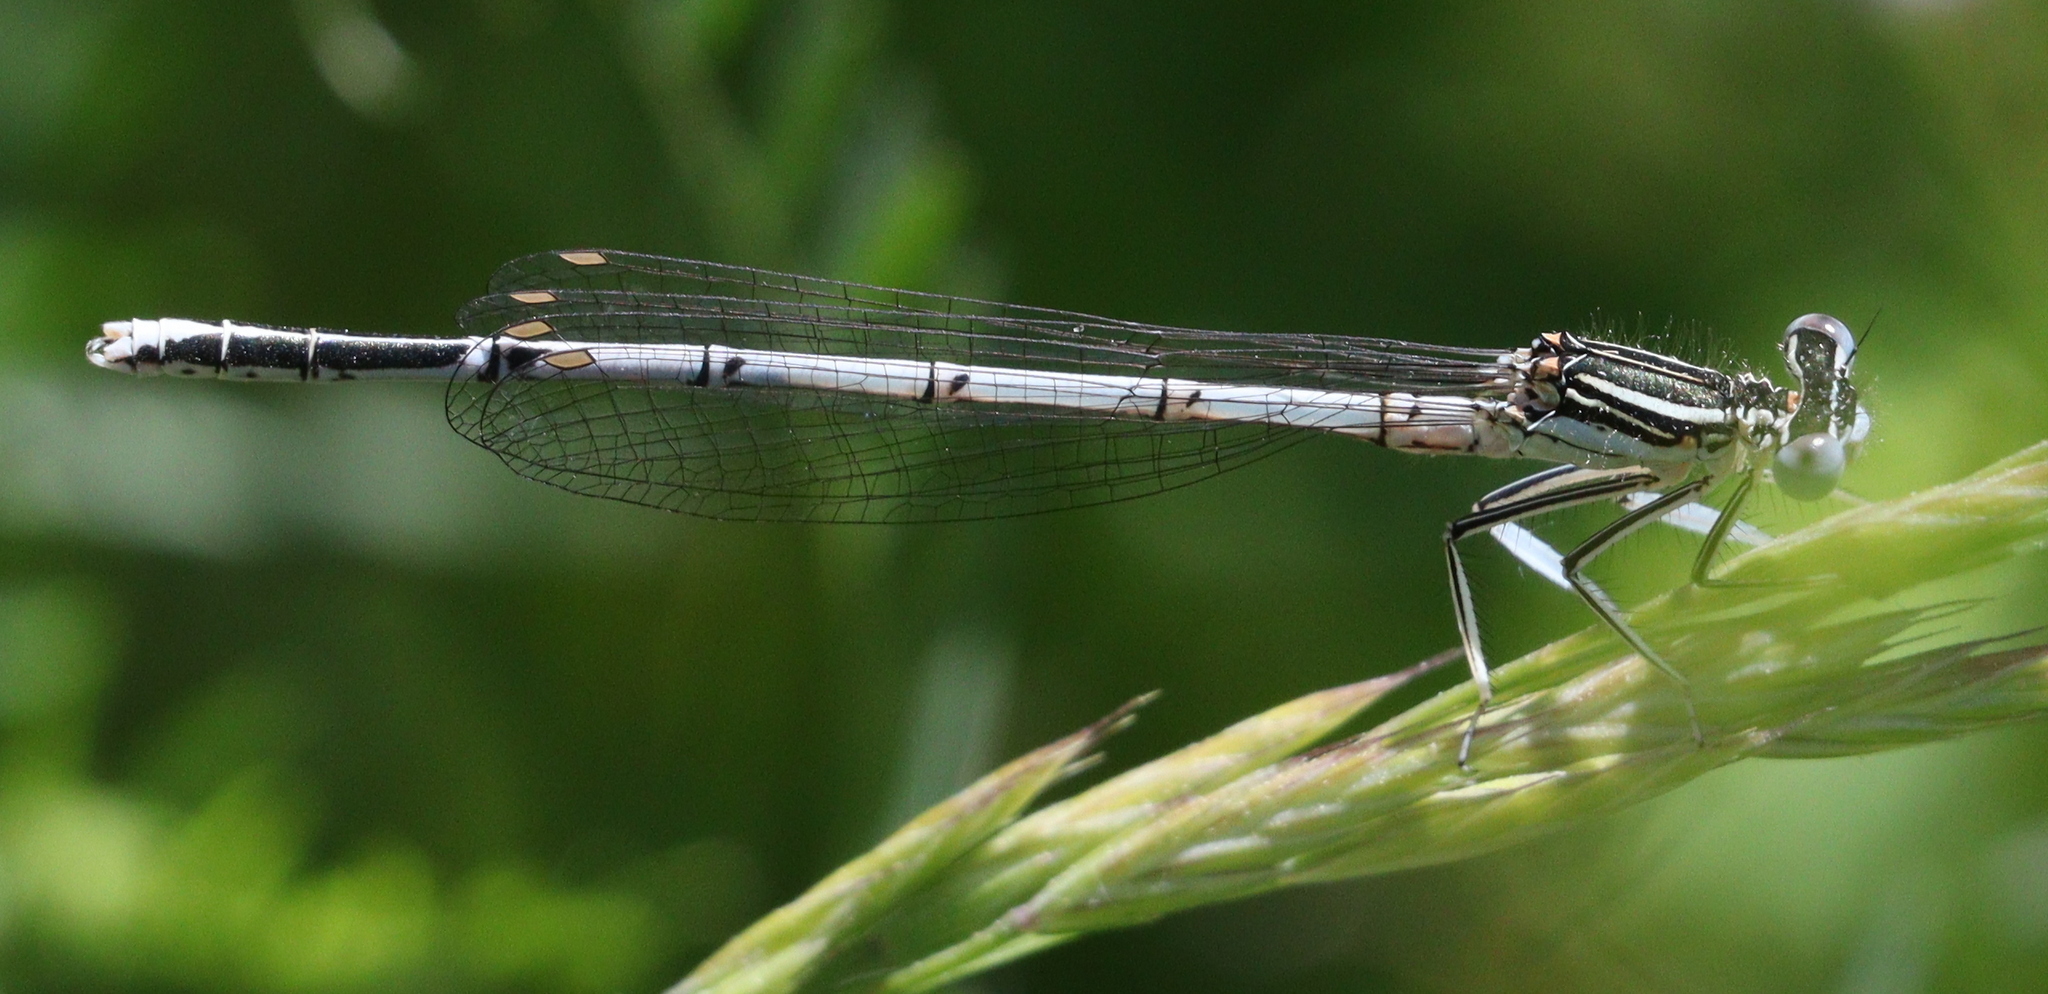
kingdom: Animalia
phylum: Arthropoda
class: Insecta
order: Odonata
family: Platycnemididae
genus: Platycnemis
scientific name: Platycnemis pennipes
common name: White-legged damselfly
